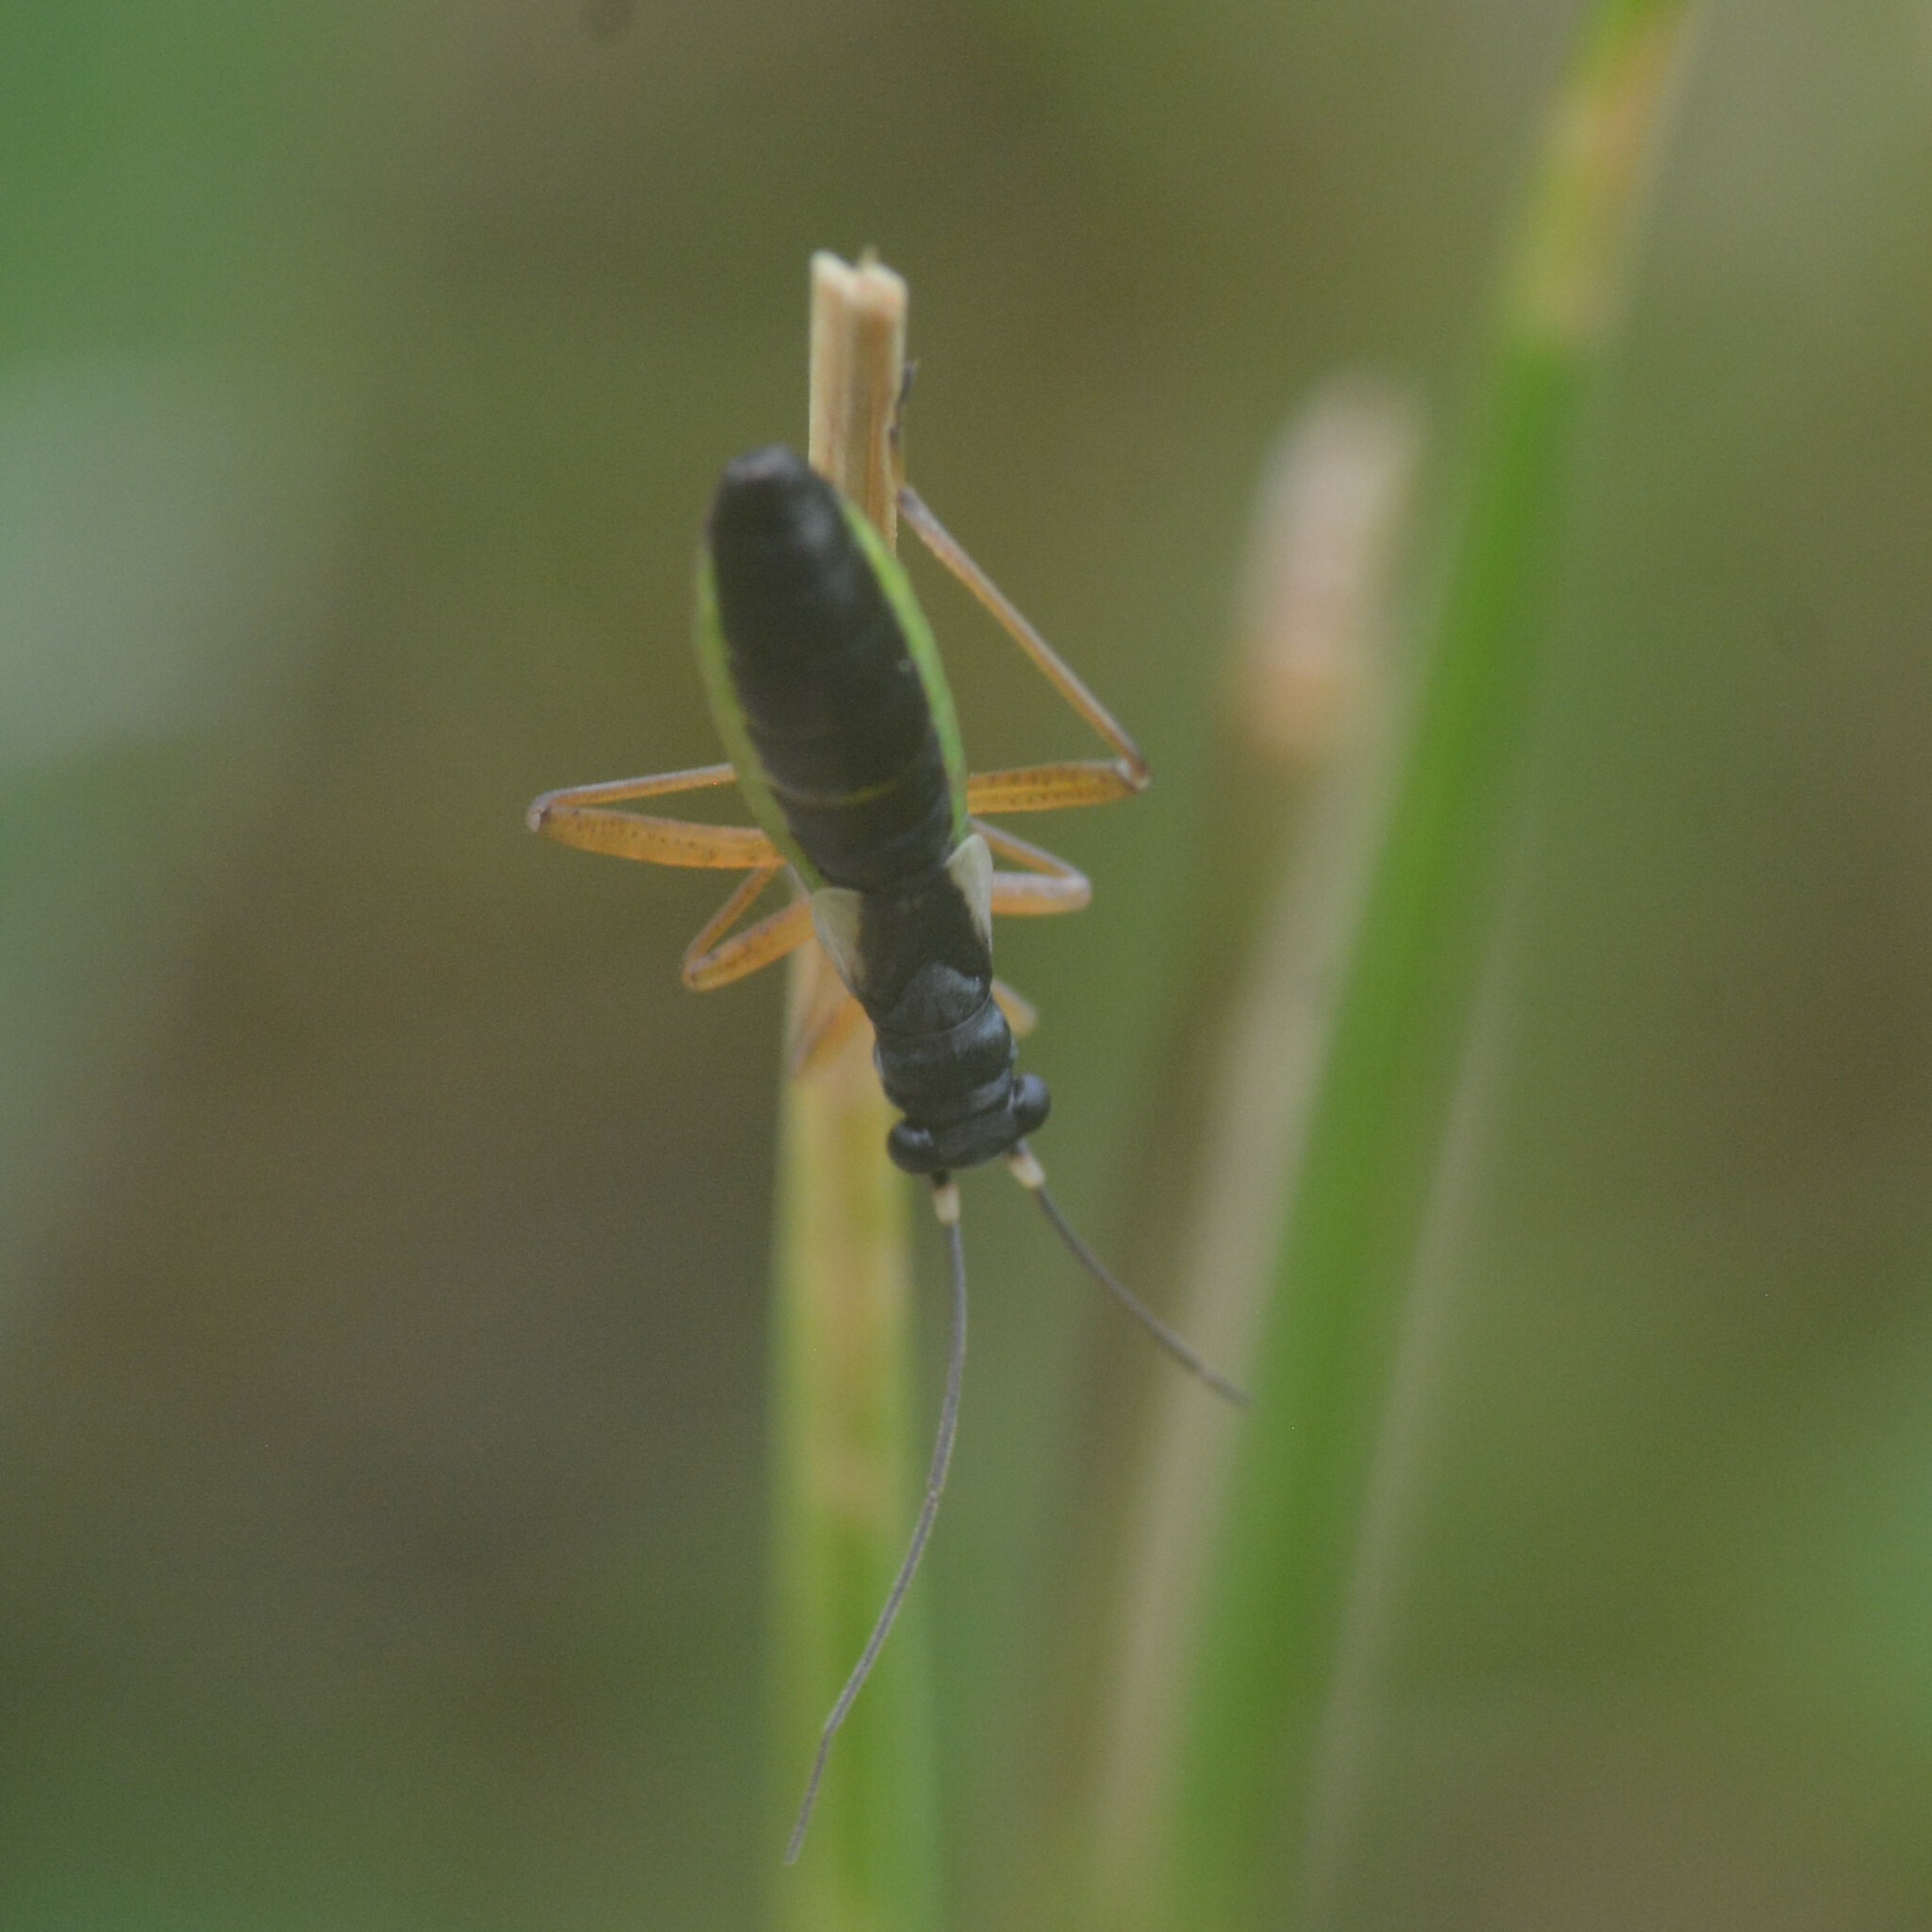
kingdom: Animalia
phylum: Arthropoda
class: Insecta
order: Hemiptera
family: Miridae
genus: Pithanus
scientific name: Pithanus maerkelii
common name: Plant bug
